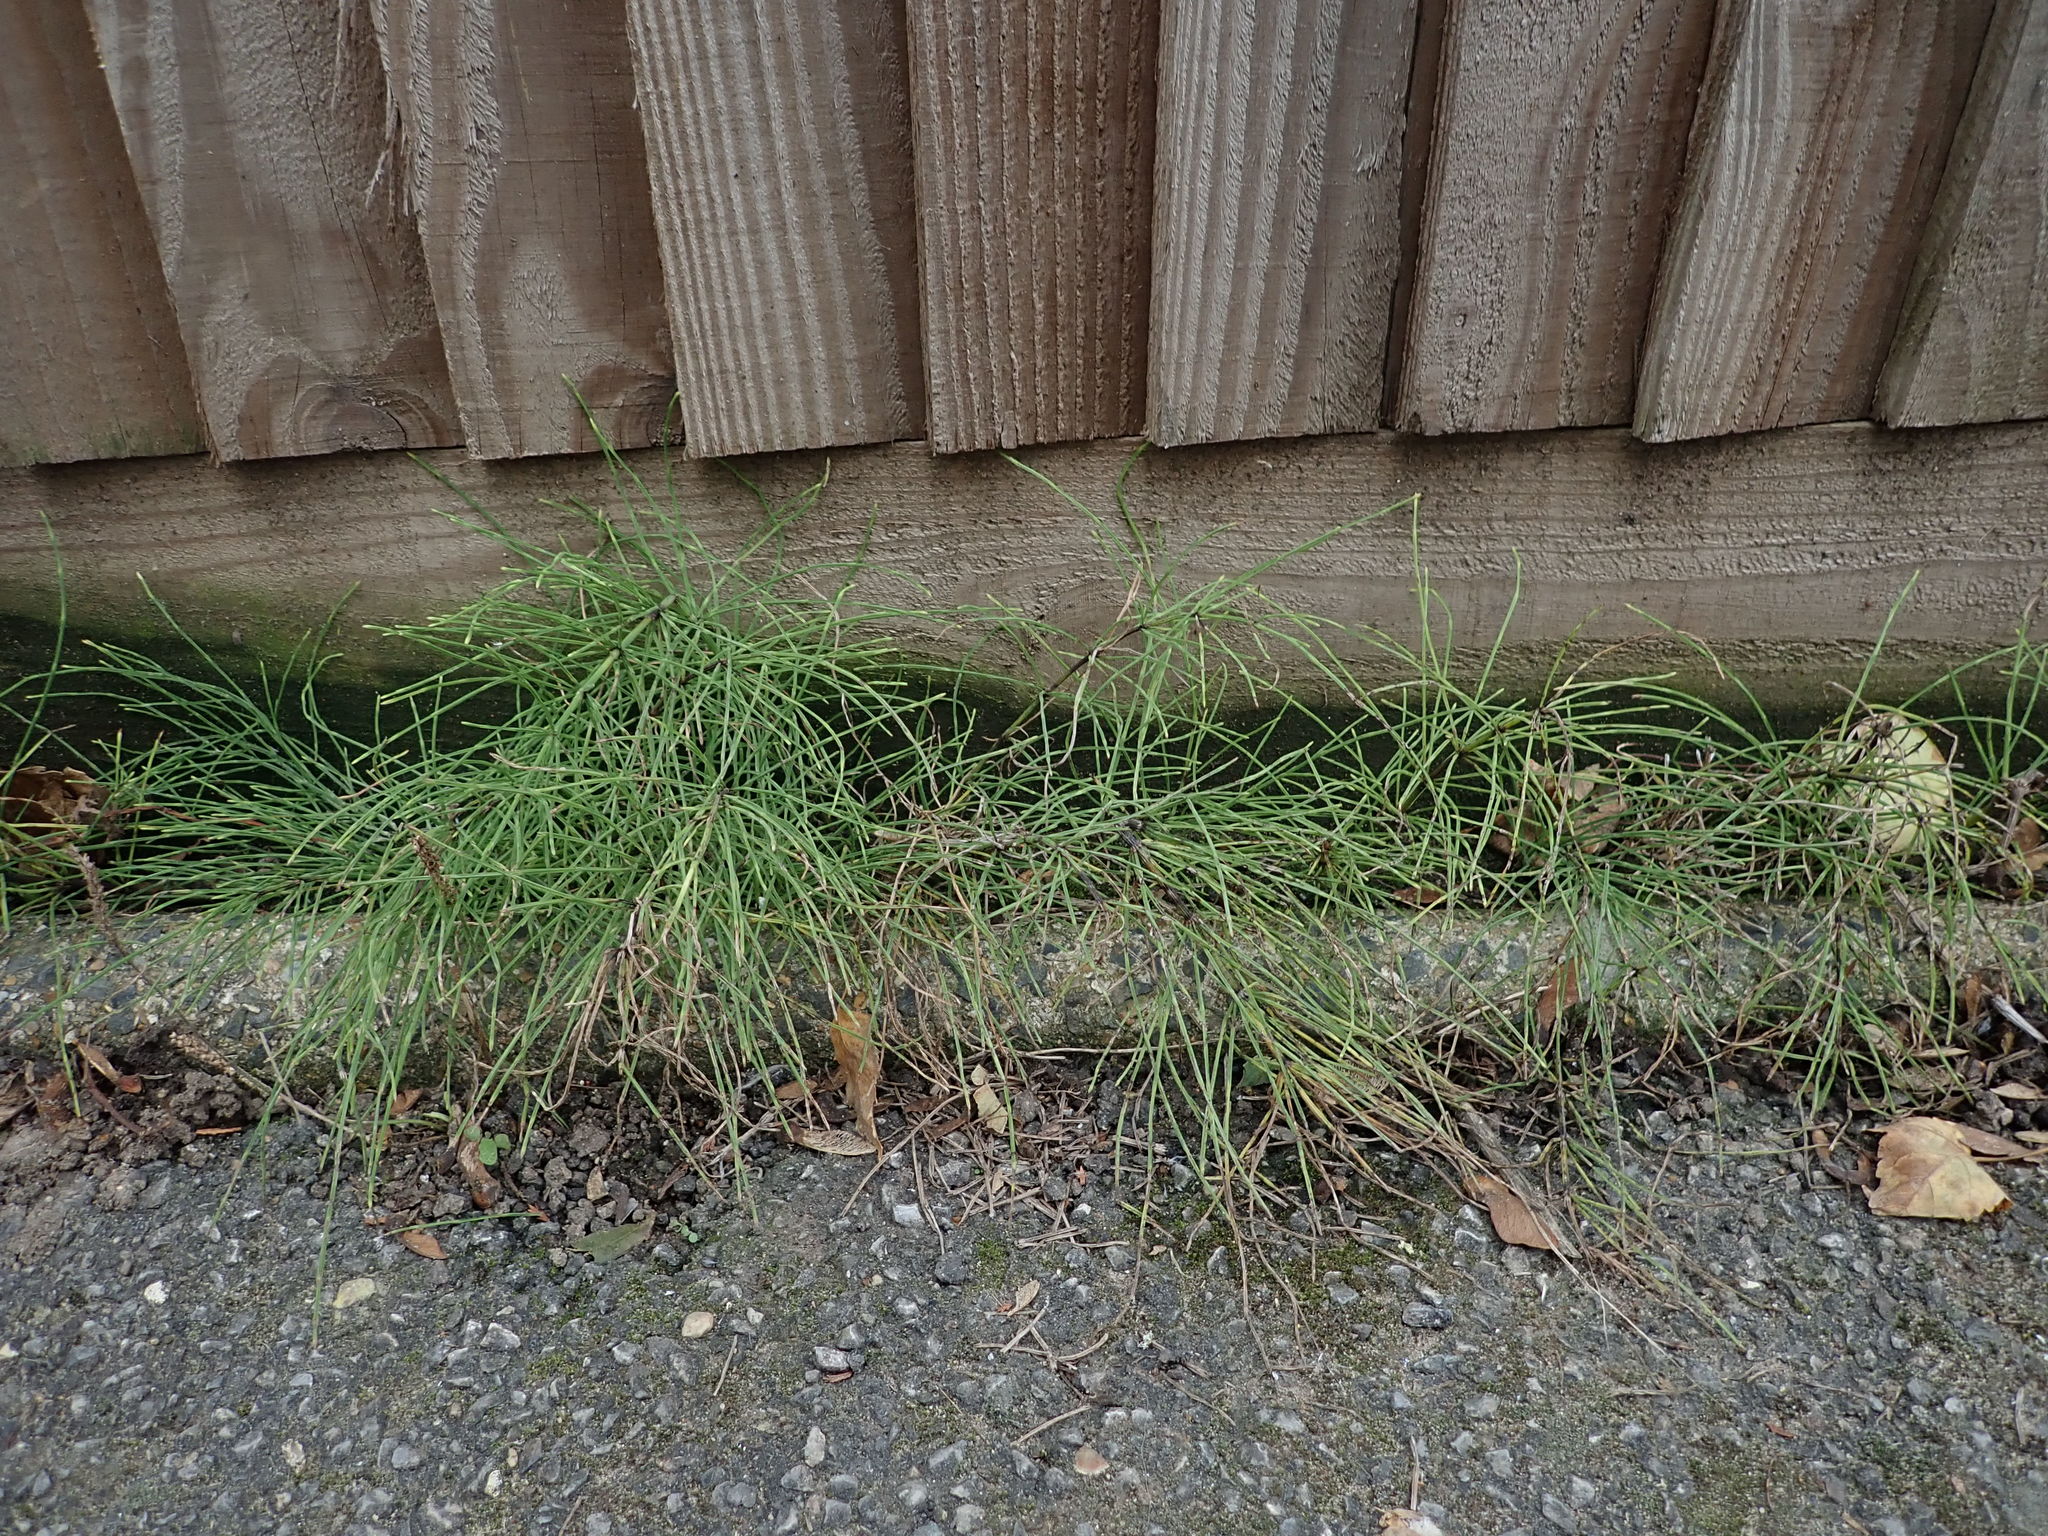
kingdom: Plantae
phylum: Tracheophyta
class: Polypodiopsida
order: Equisetales
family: Equisetaceae
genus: Equisetum
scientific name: Equisetum arvense
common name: Field horsetail
